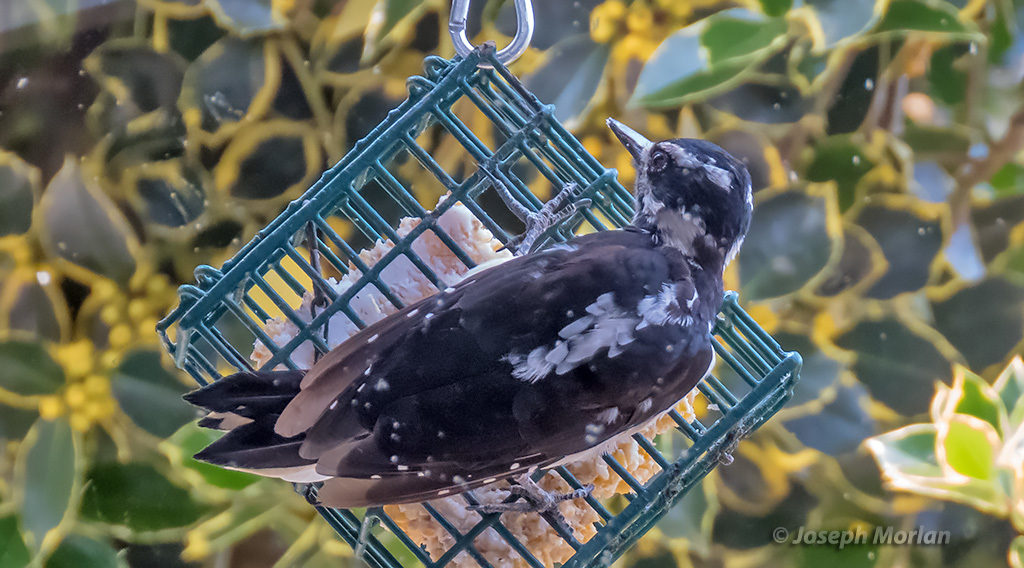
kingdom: Animalia
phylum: Chordata
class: Aves
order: Piciformes
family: Picidae
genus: Leuconotopicus
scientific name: Leuconotopicus villosus
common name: Hairy woodpecker
